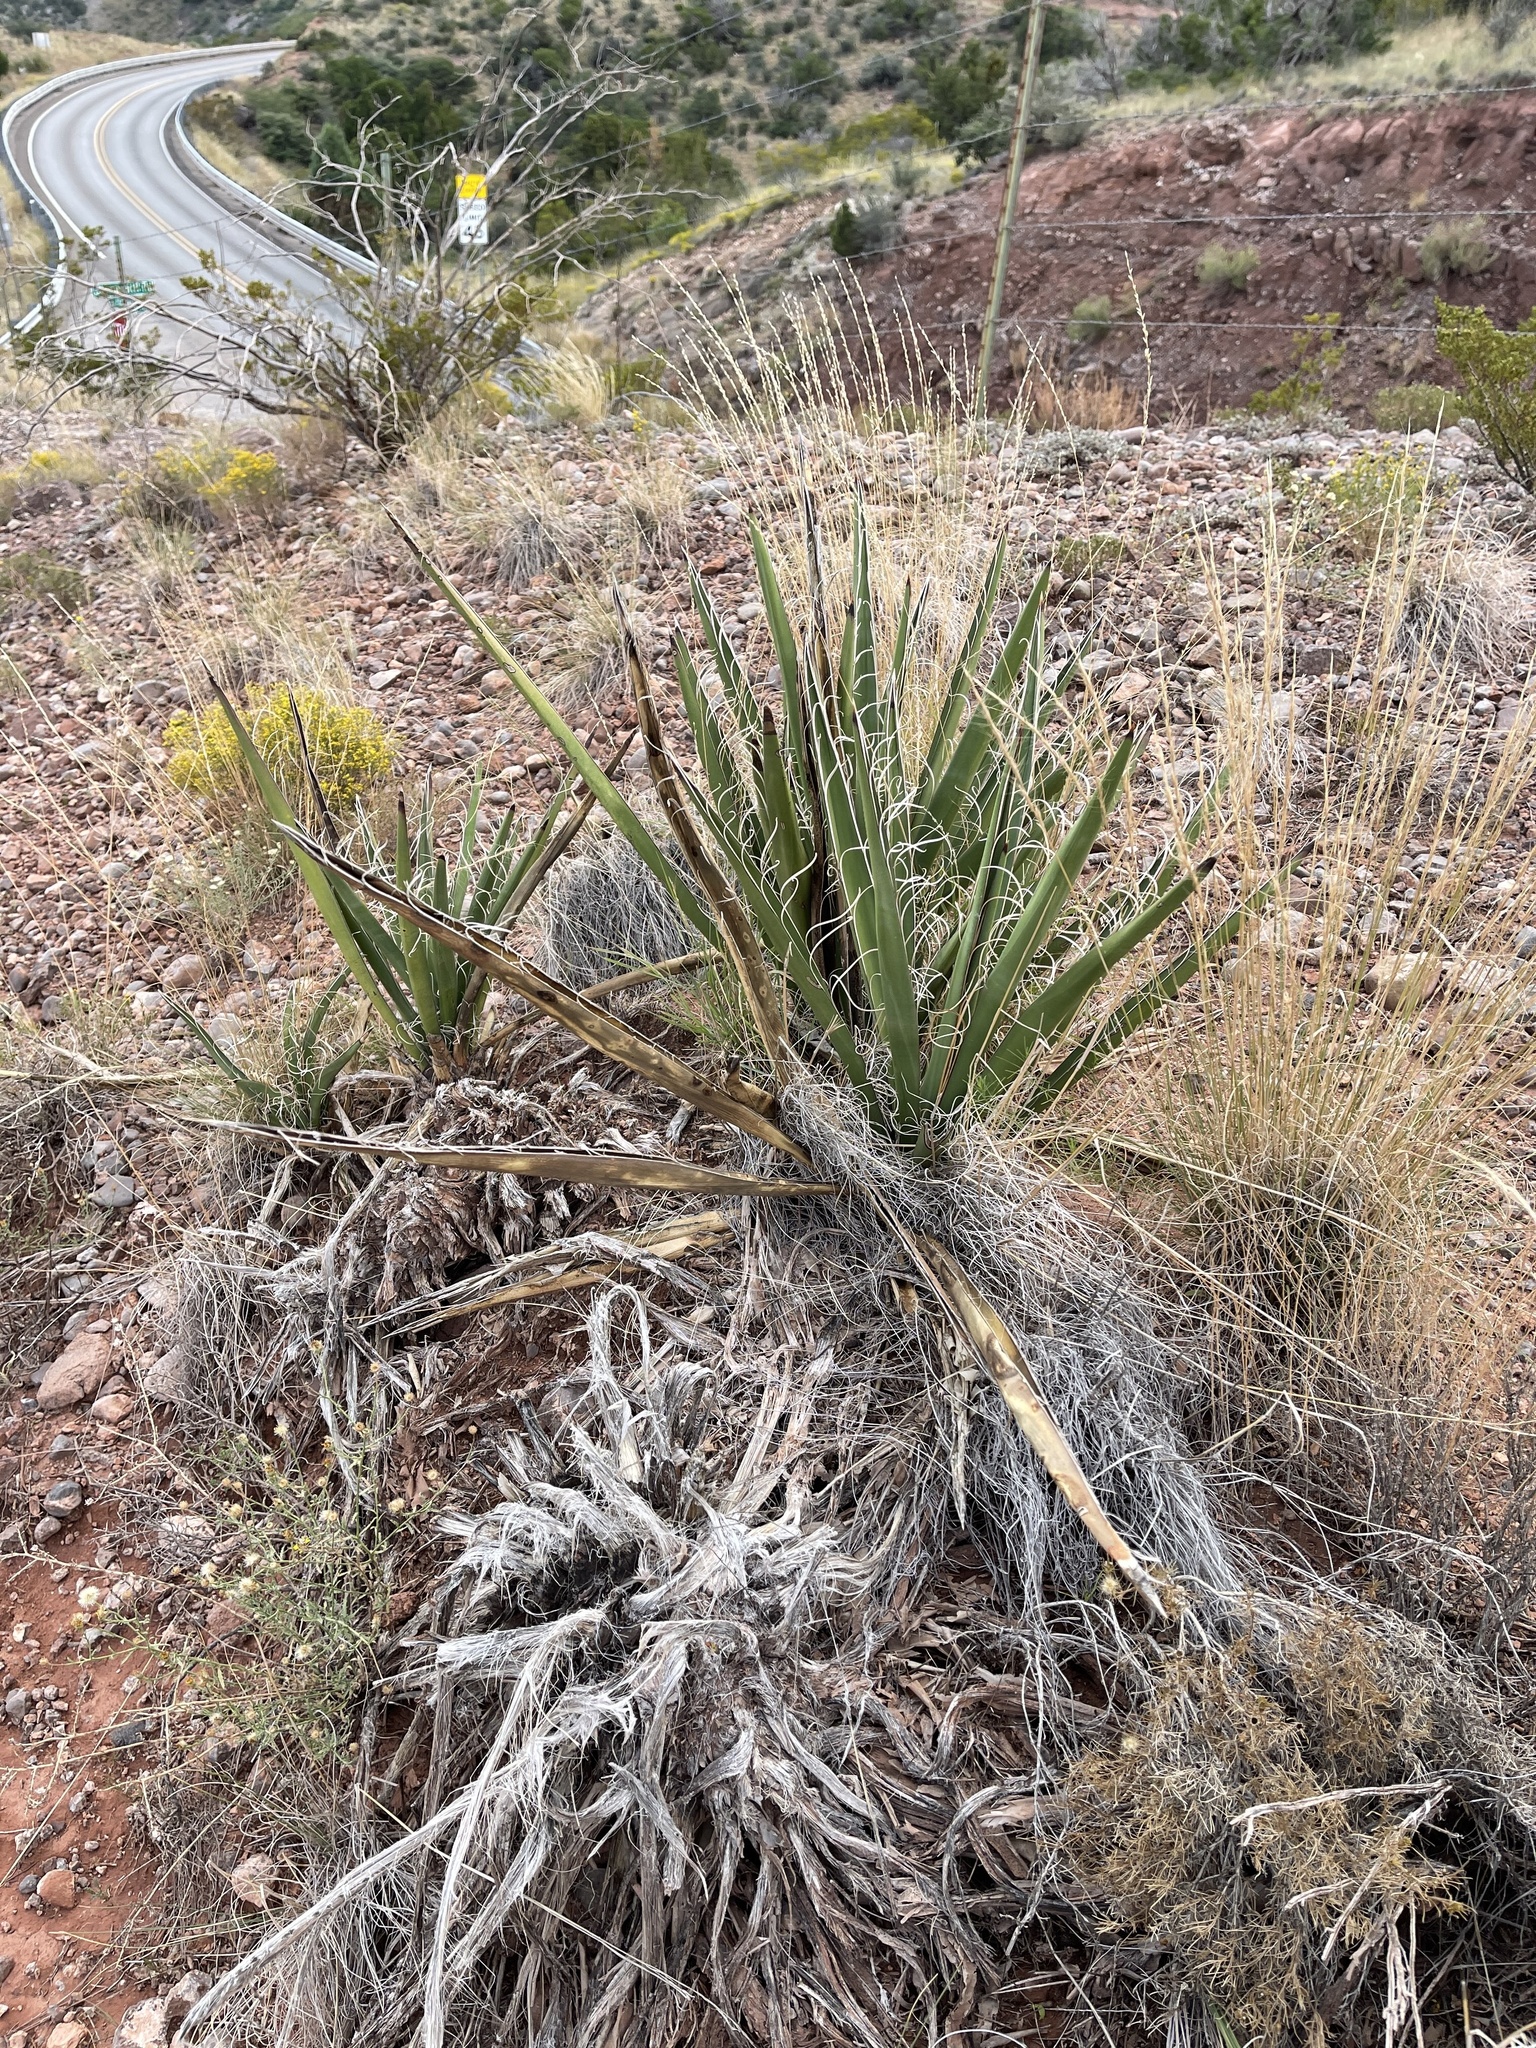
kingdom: Plantae
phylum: Tracheophyta
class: Liliopsida
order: Asparagales
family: Asparagaceae
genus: Yucca
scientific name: Yucca baccata
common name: Banana yucca
